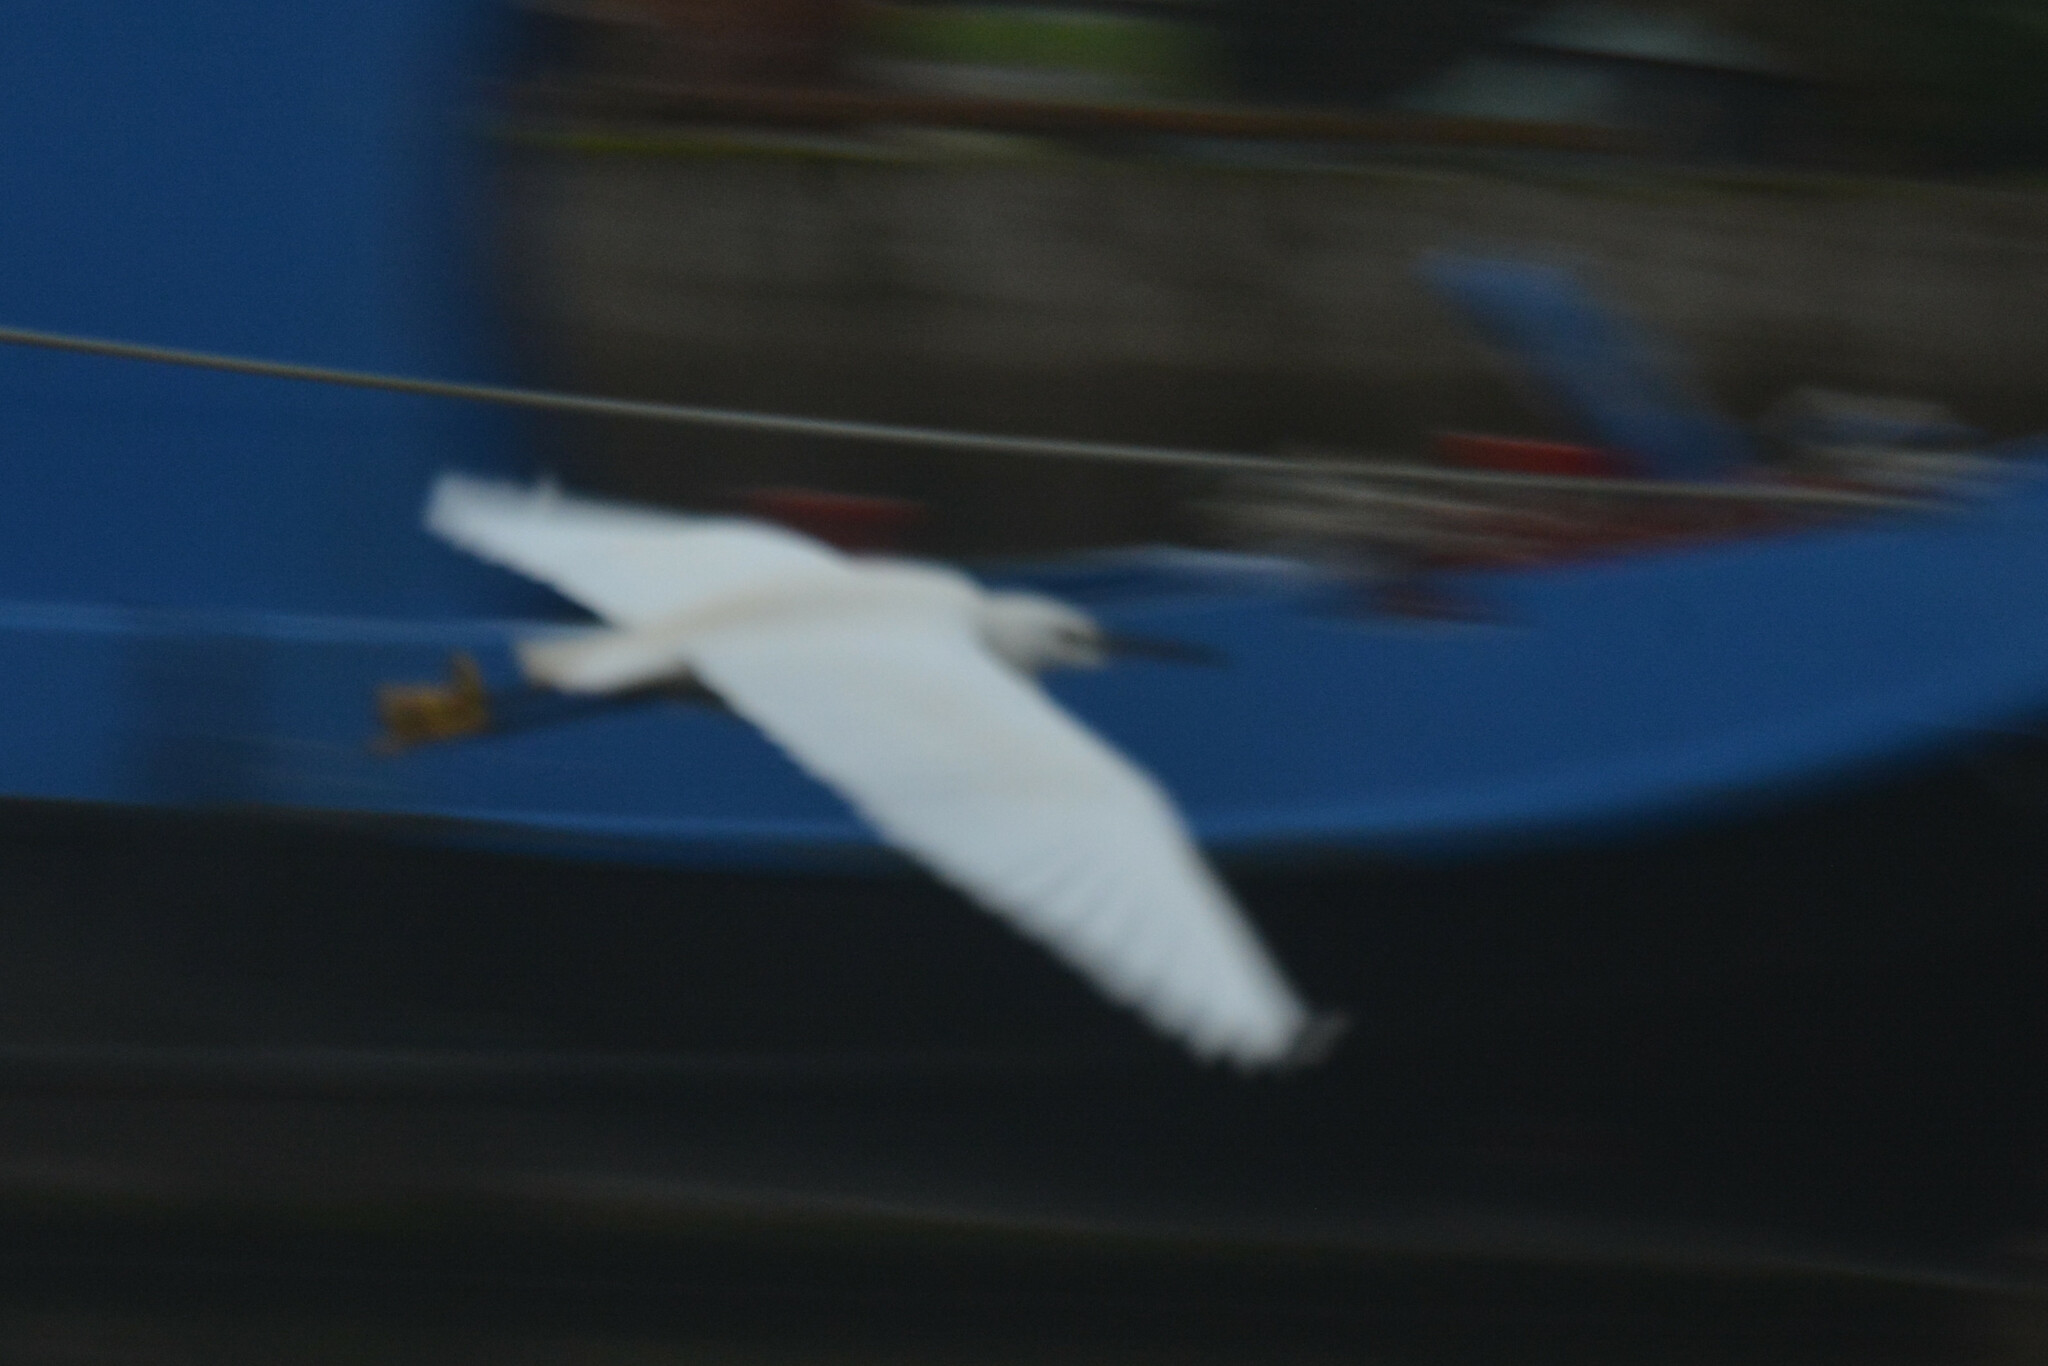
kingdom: Animalia
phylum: Chordata
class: Aves
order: Pelecaniformes
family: Ardeidae
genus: Egretta
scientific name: Egretta garzetta
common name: Little egret
